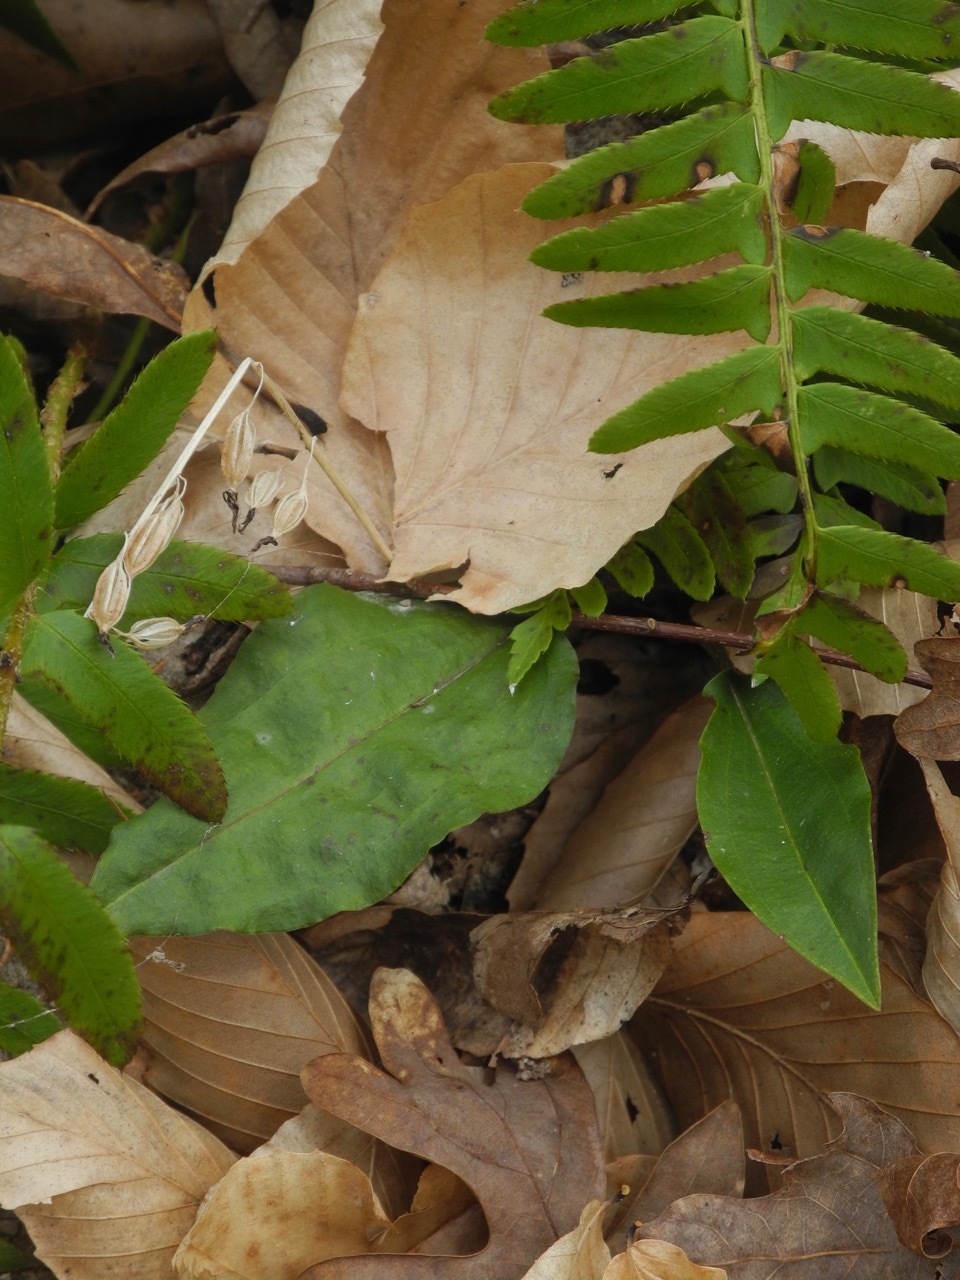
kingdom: Plantae
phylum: Tracheophyta
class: Liliopsida
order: Asparagales
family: Orchidaceae
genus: Tipularia
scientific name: Tipularia discolor
